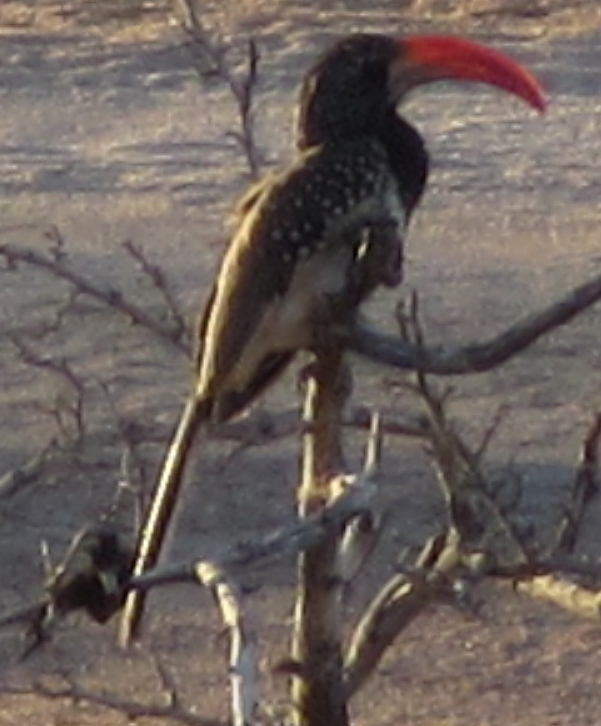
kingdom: Animalia
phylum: Chordata
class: Aves
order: Bucerotiformes
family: Bucerotidae
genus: Tockus
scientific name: Tockus monteiri
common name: Monteiro's hornbill
